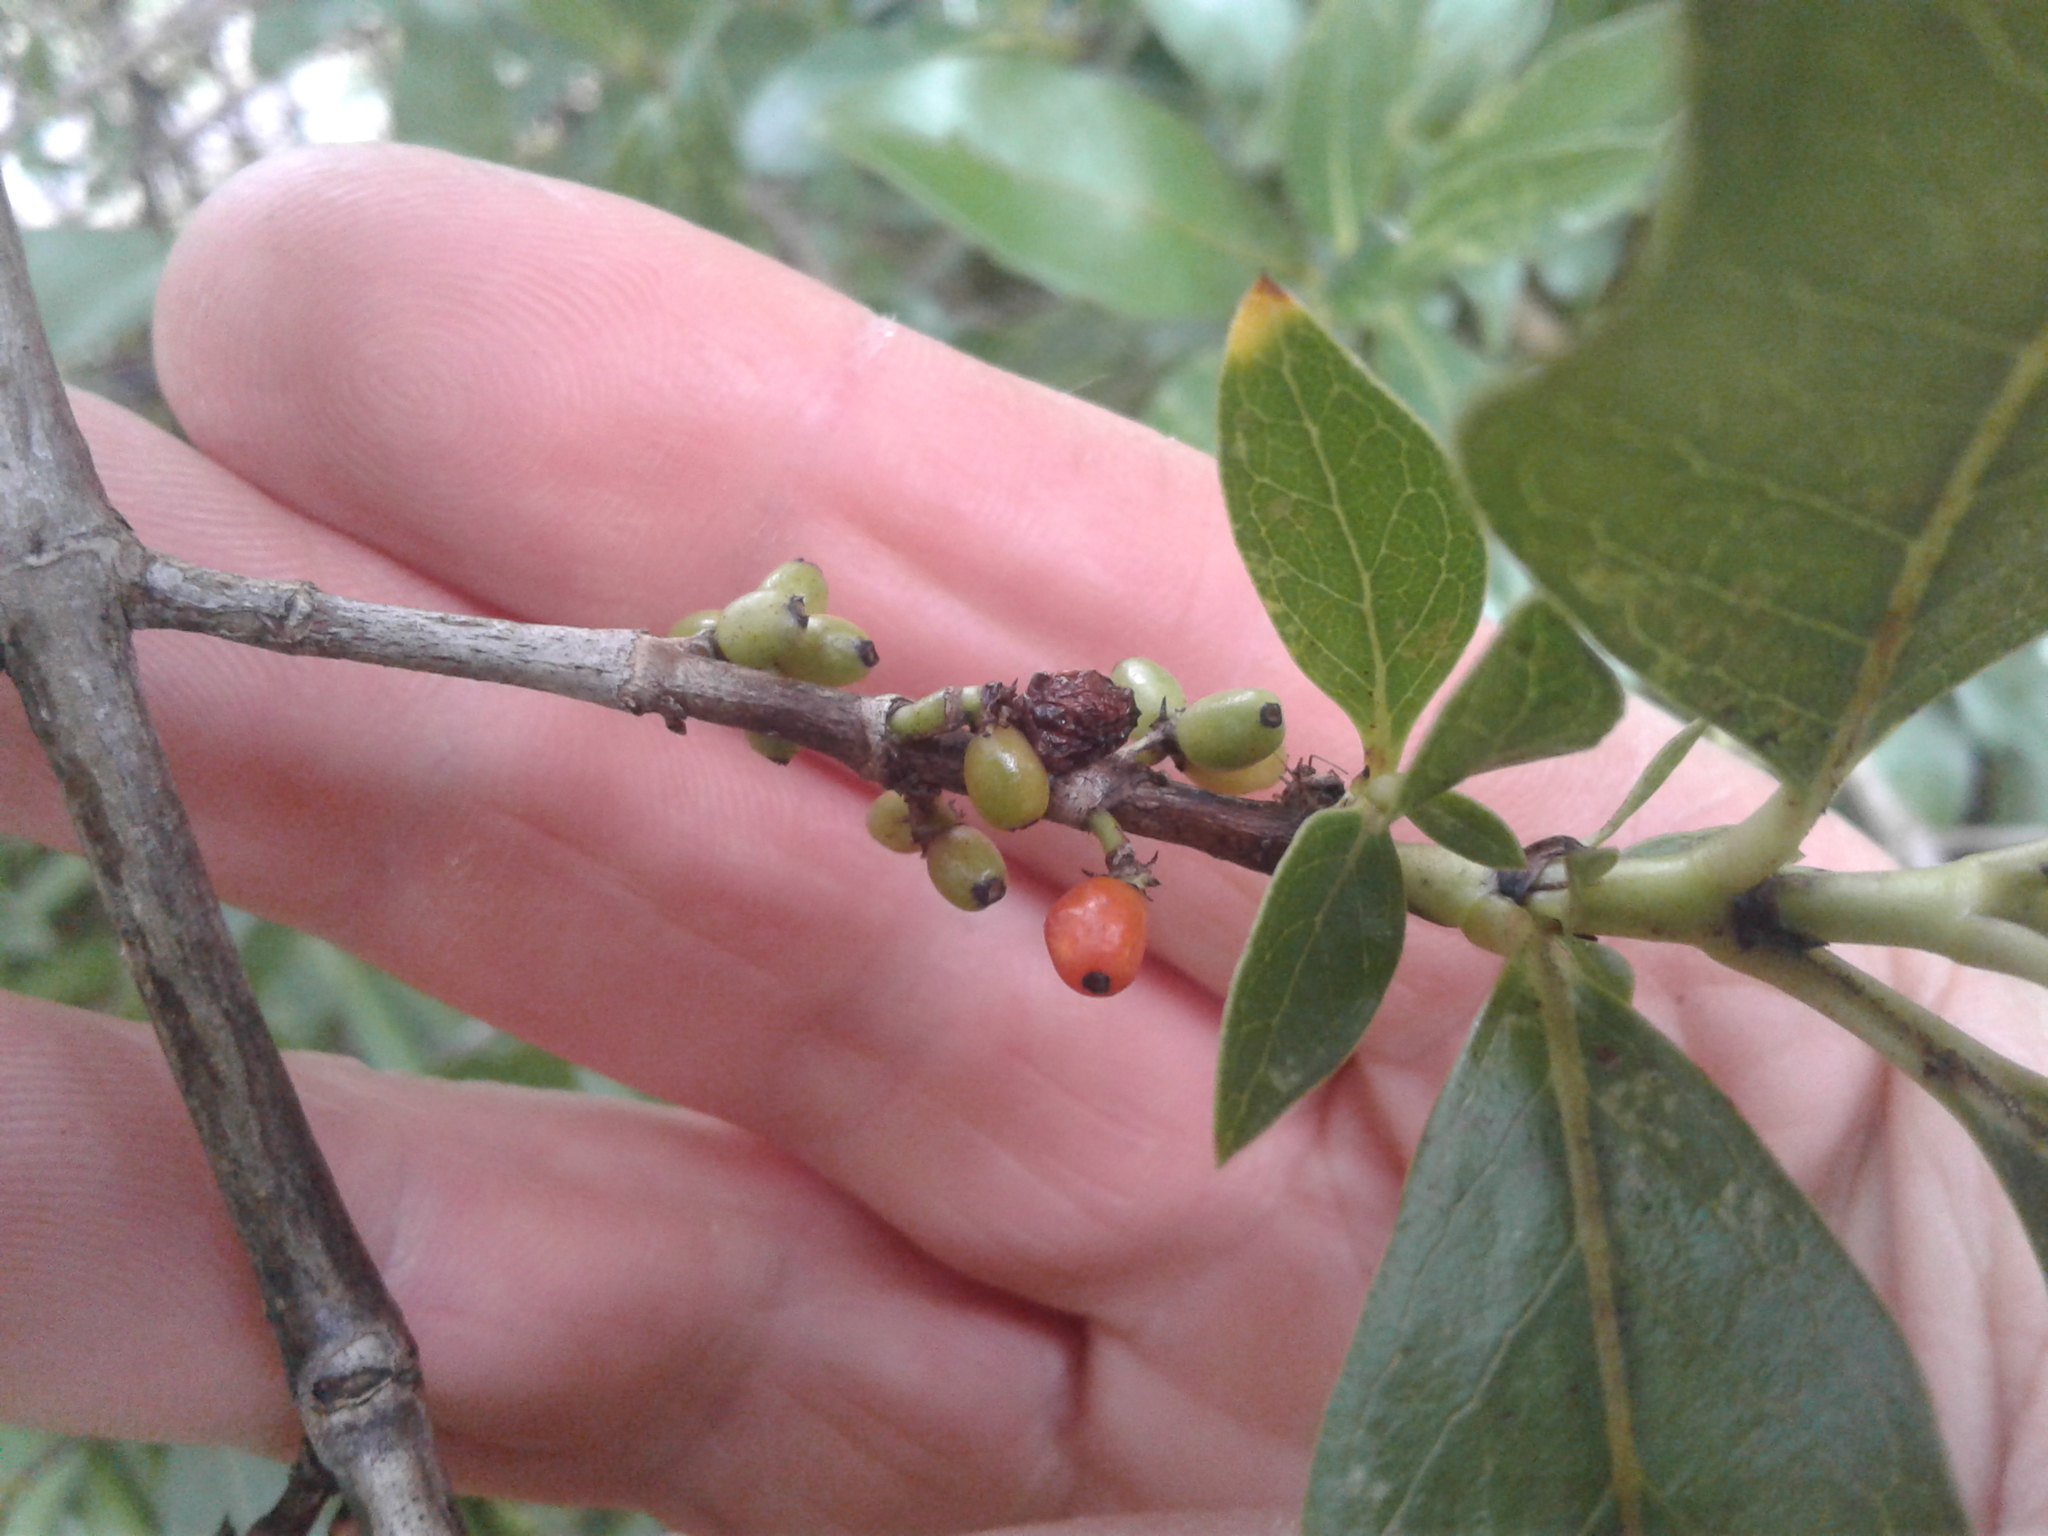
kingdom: Plantae
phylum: Tracheophyta
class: Magnoliopsida
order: Gentianales
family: Rubiaceae
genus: Coprosma
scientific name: Coprosma robusta
